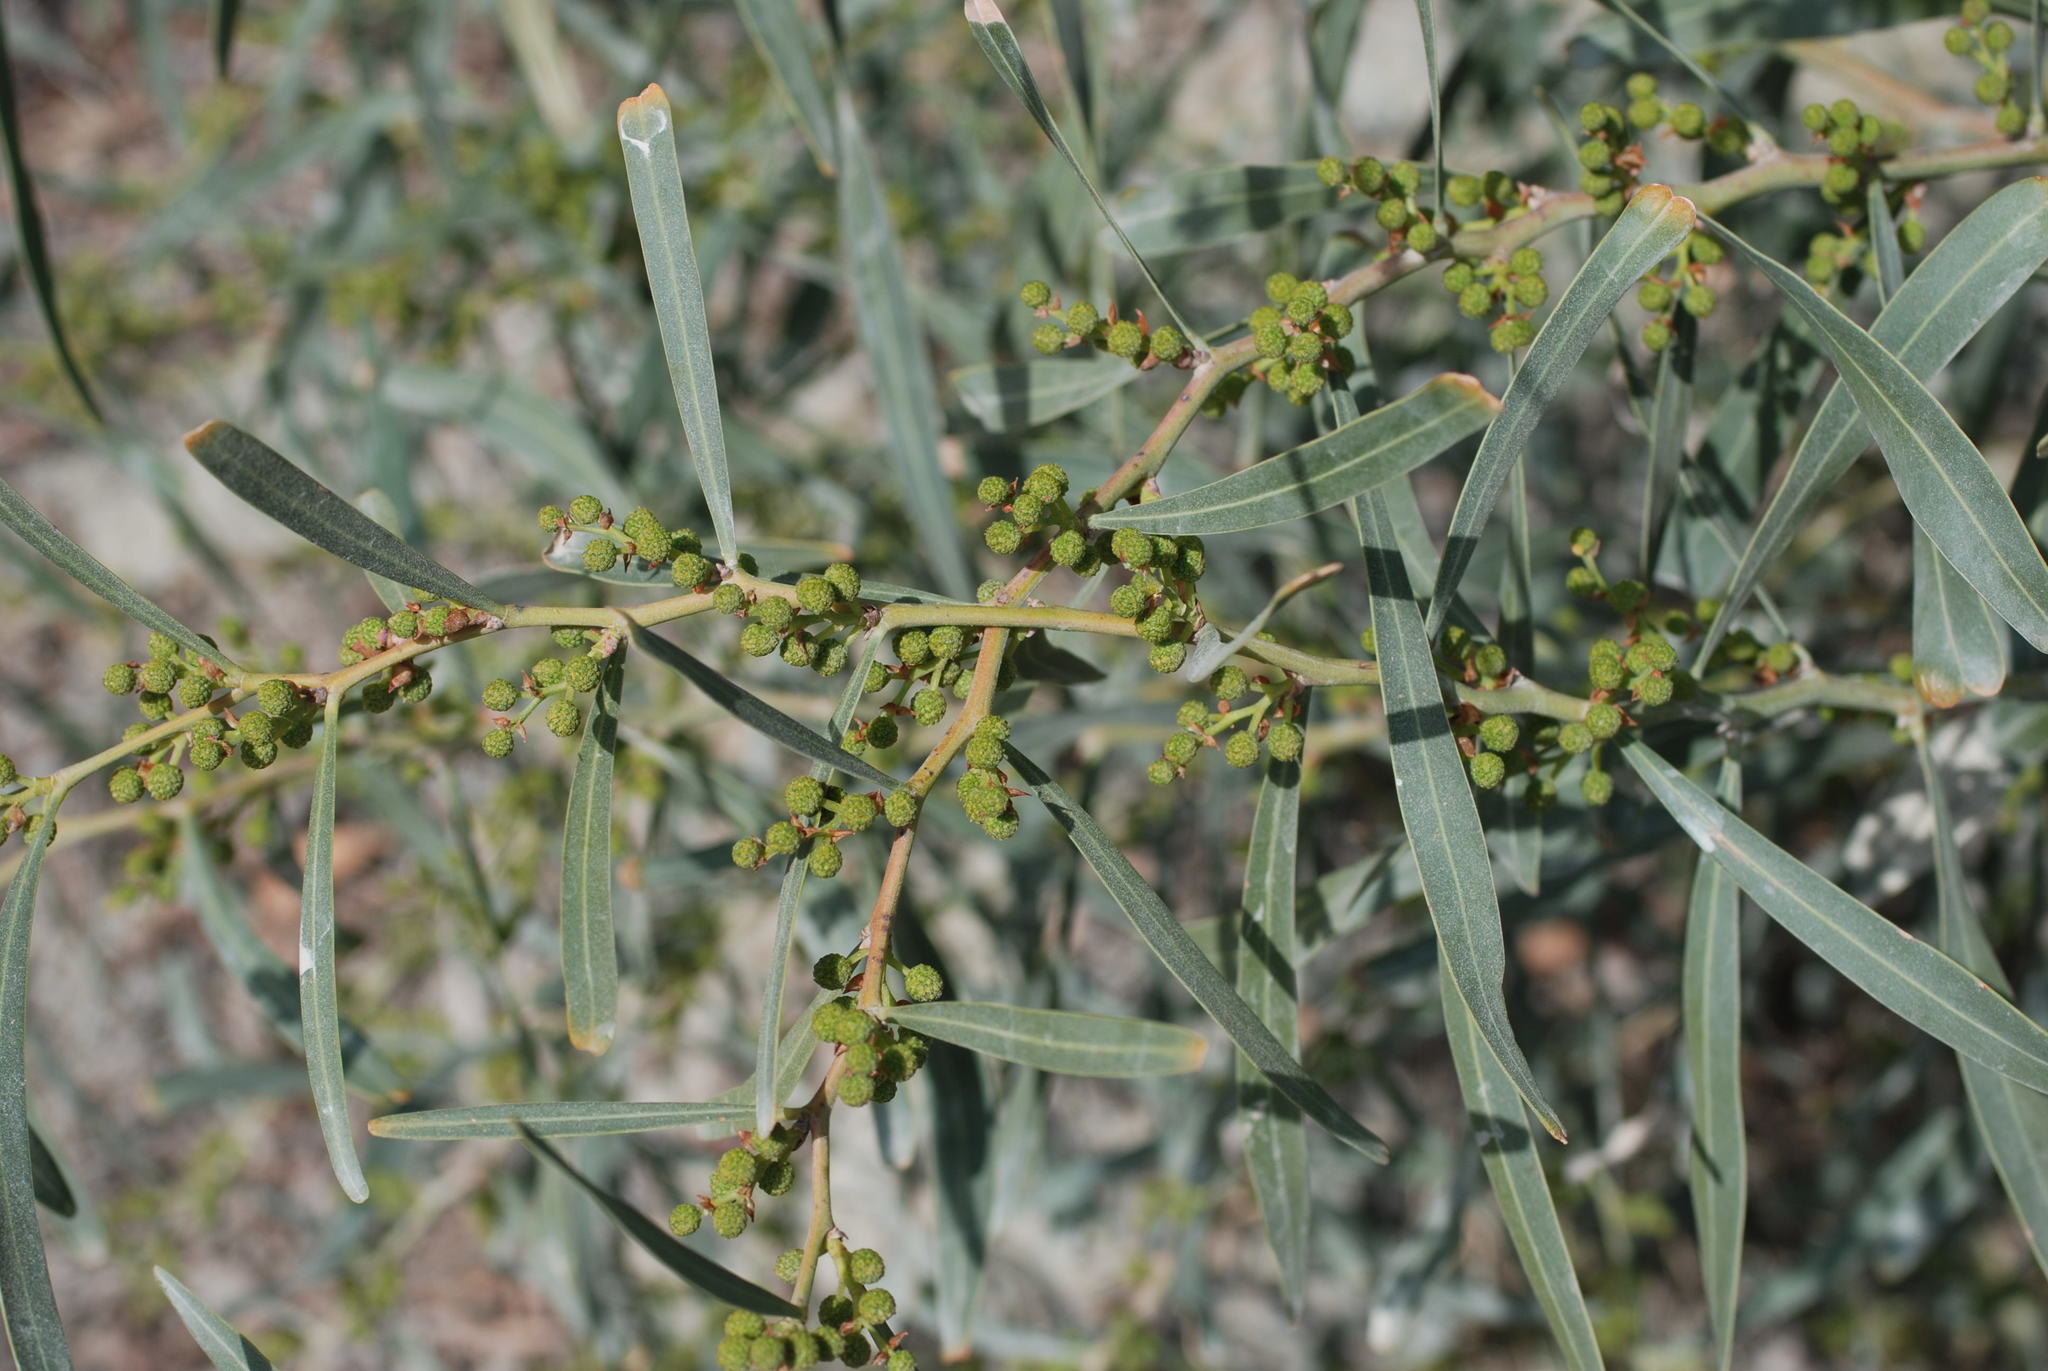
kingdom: Plantae
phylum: Tracheophyta
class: Magnoliopsida
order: Fabales
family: Fabaceae
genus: Acacia
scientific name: Acacia saligna
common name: Orange wattle
